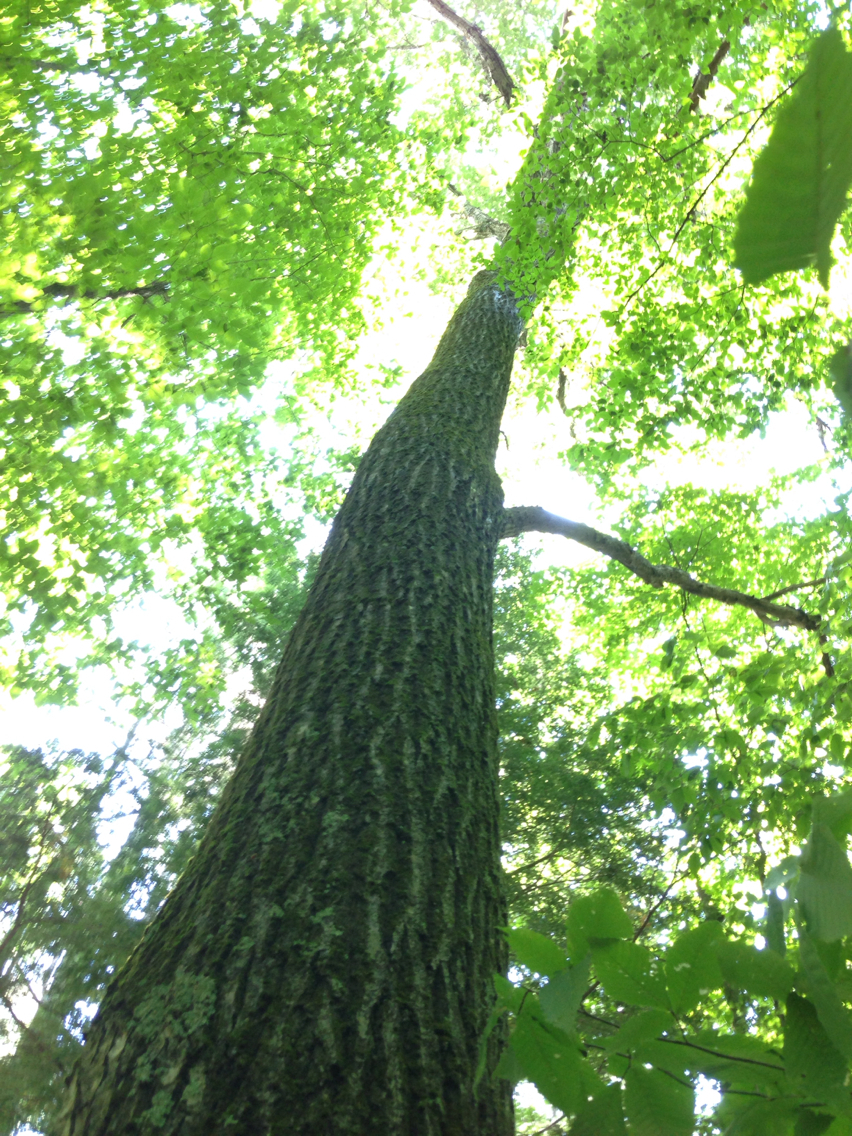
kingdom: Plantae
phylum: Tracheophyta
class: Magnoliopsida
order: Fagales
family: Fagaceae
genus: Quercus
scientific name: Quercus rubra
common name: Red oak
